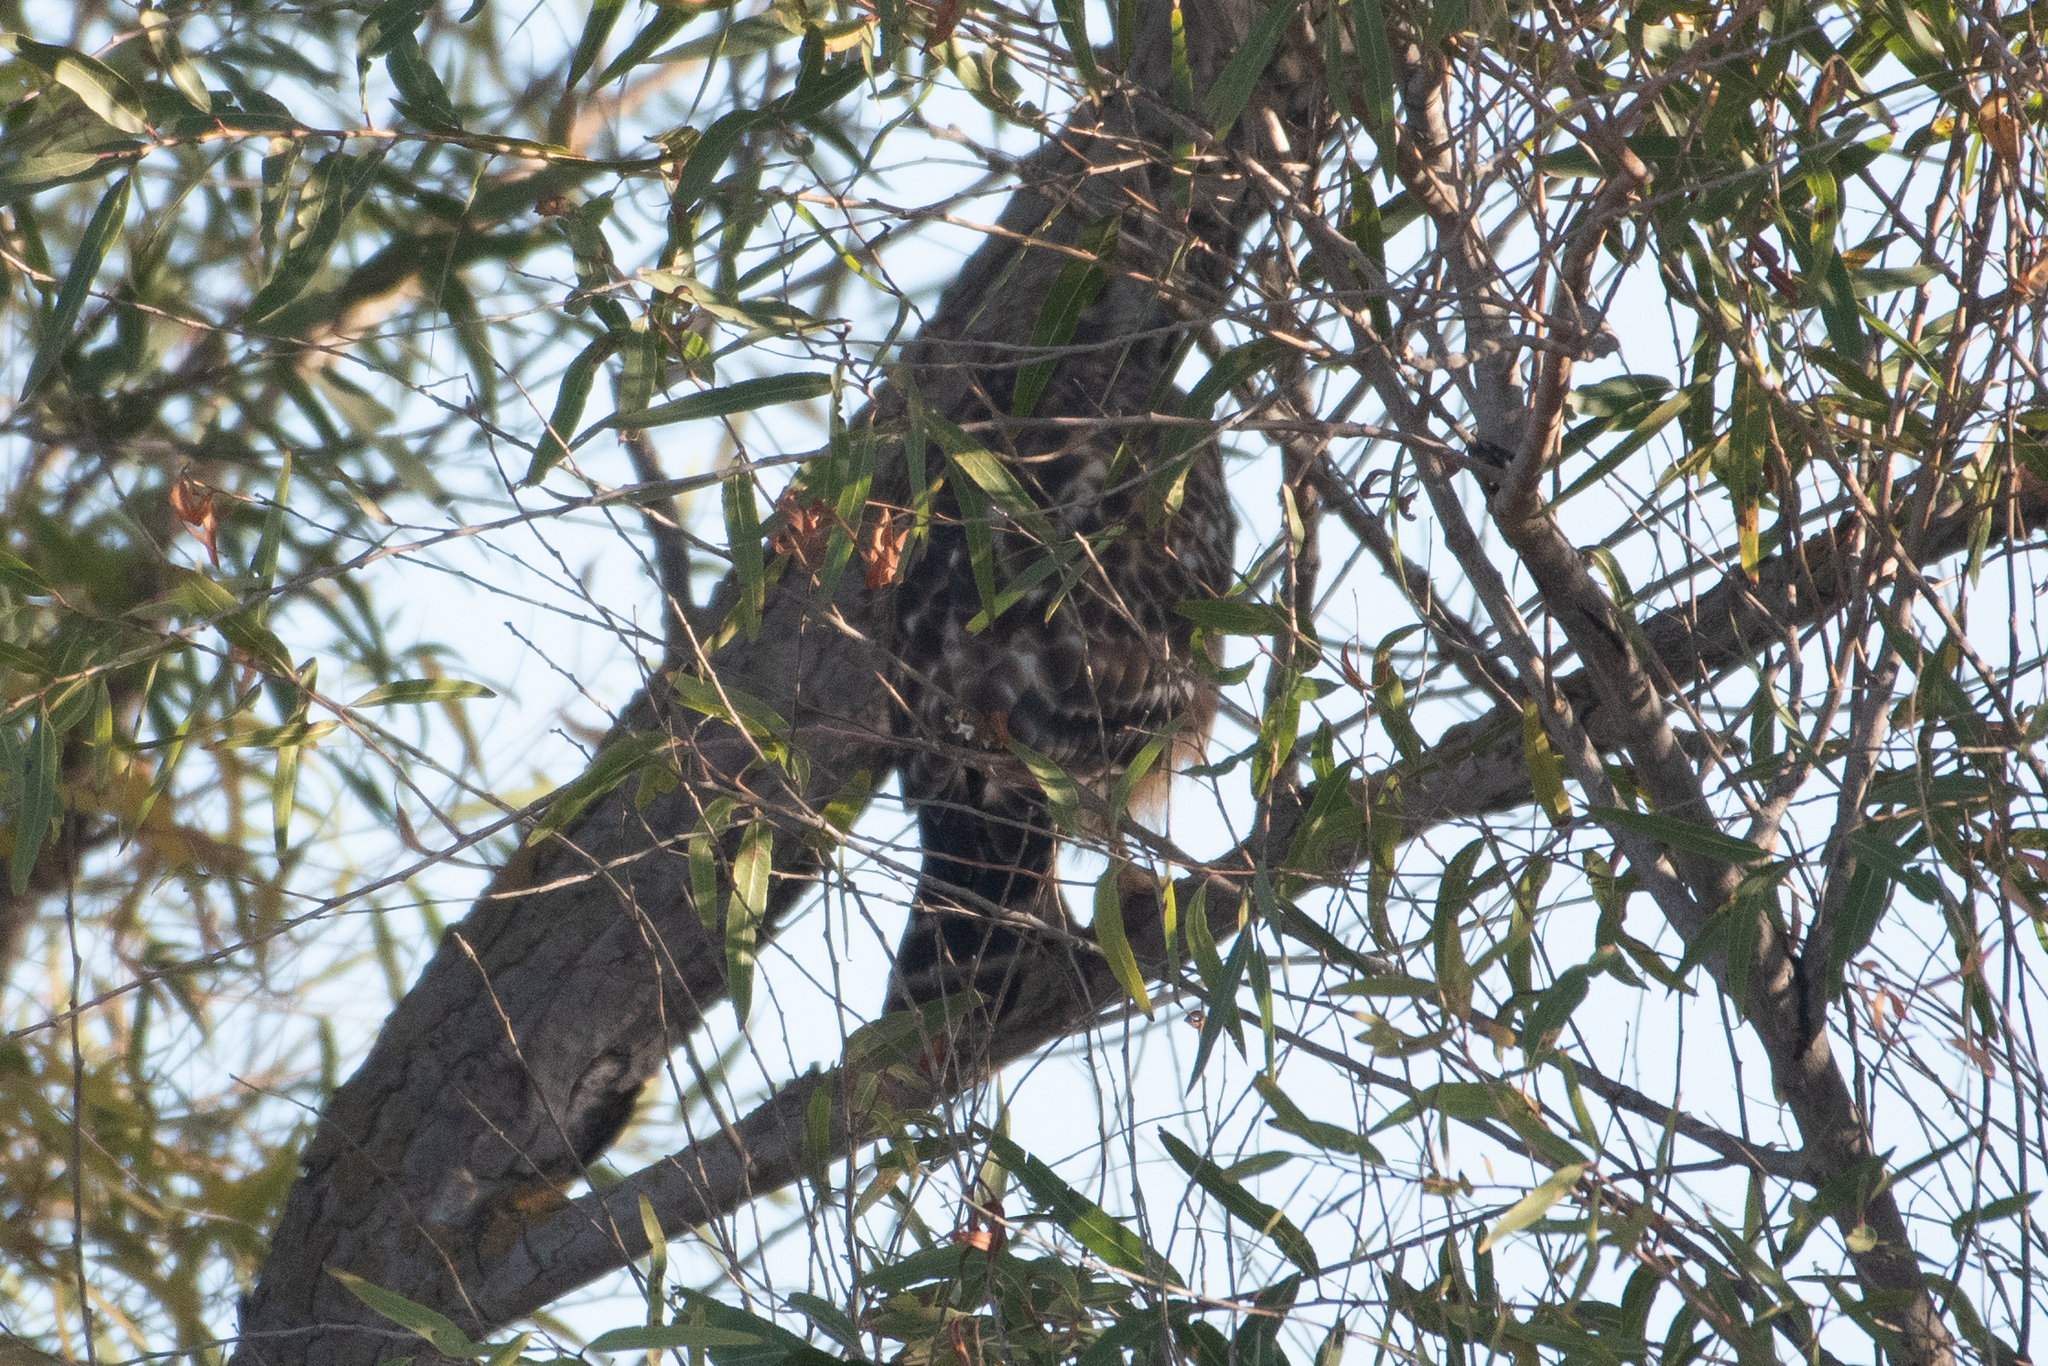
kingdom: Animalia
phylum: Chordata
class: Aves
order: Accipitriformes
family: Accipitridae
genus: Buteo
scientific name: Buteo lineatus
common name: Red-shouldered hawk
